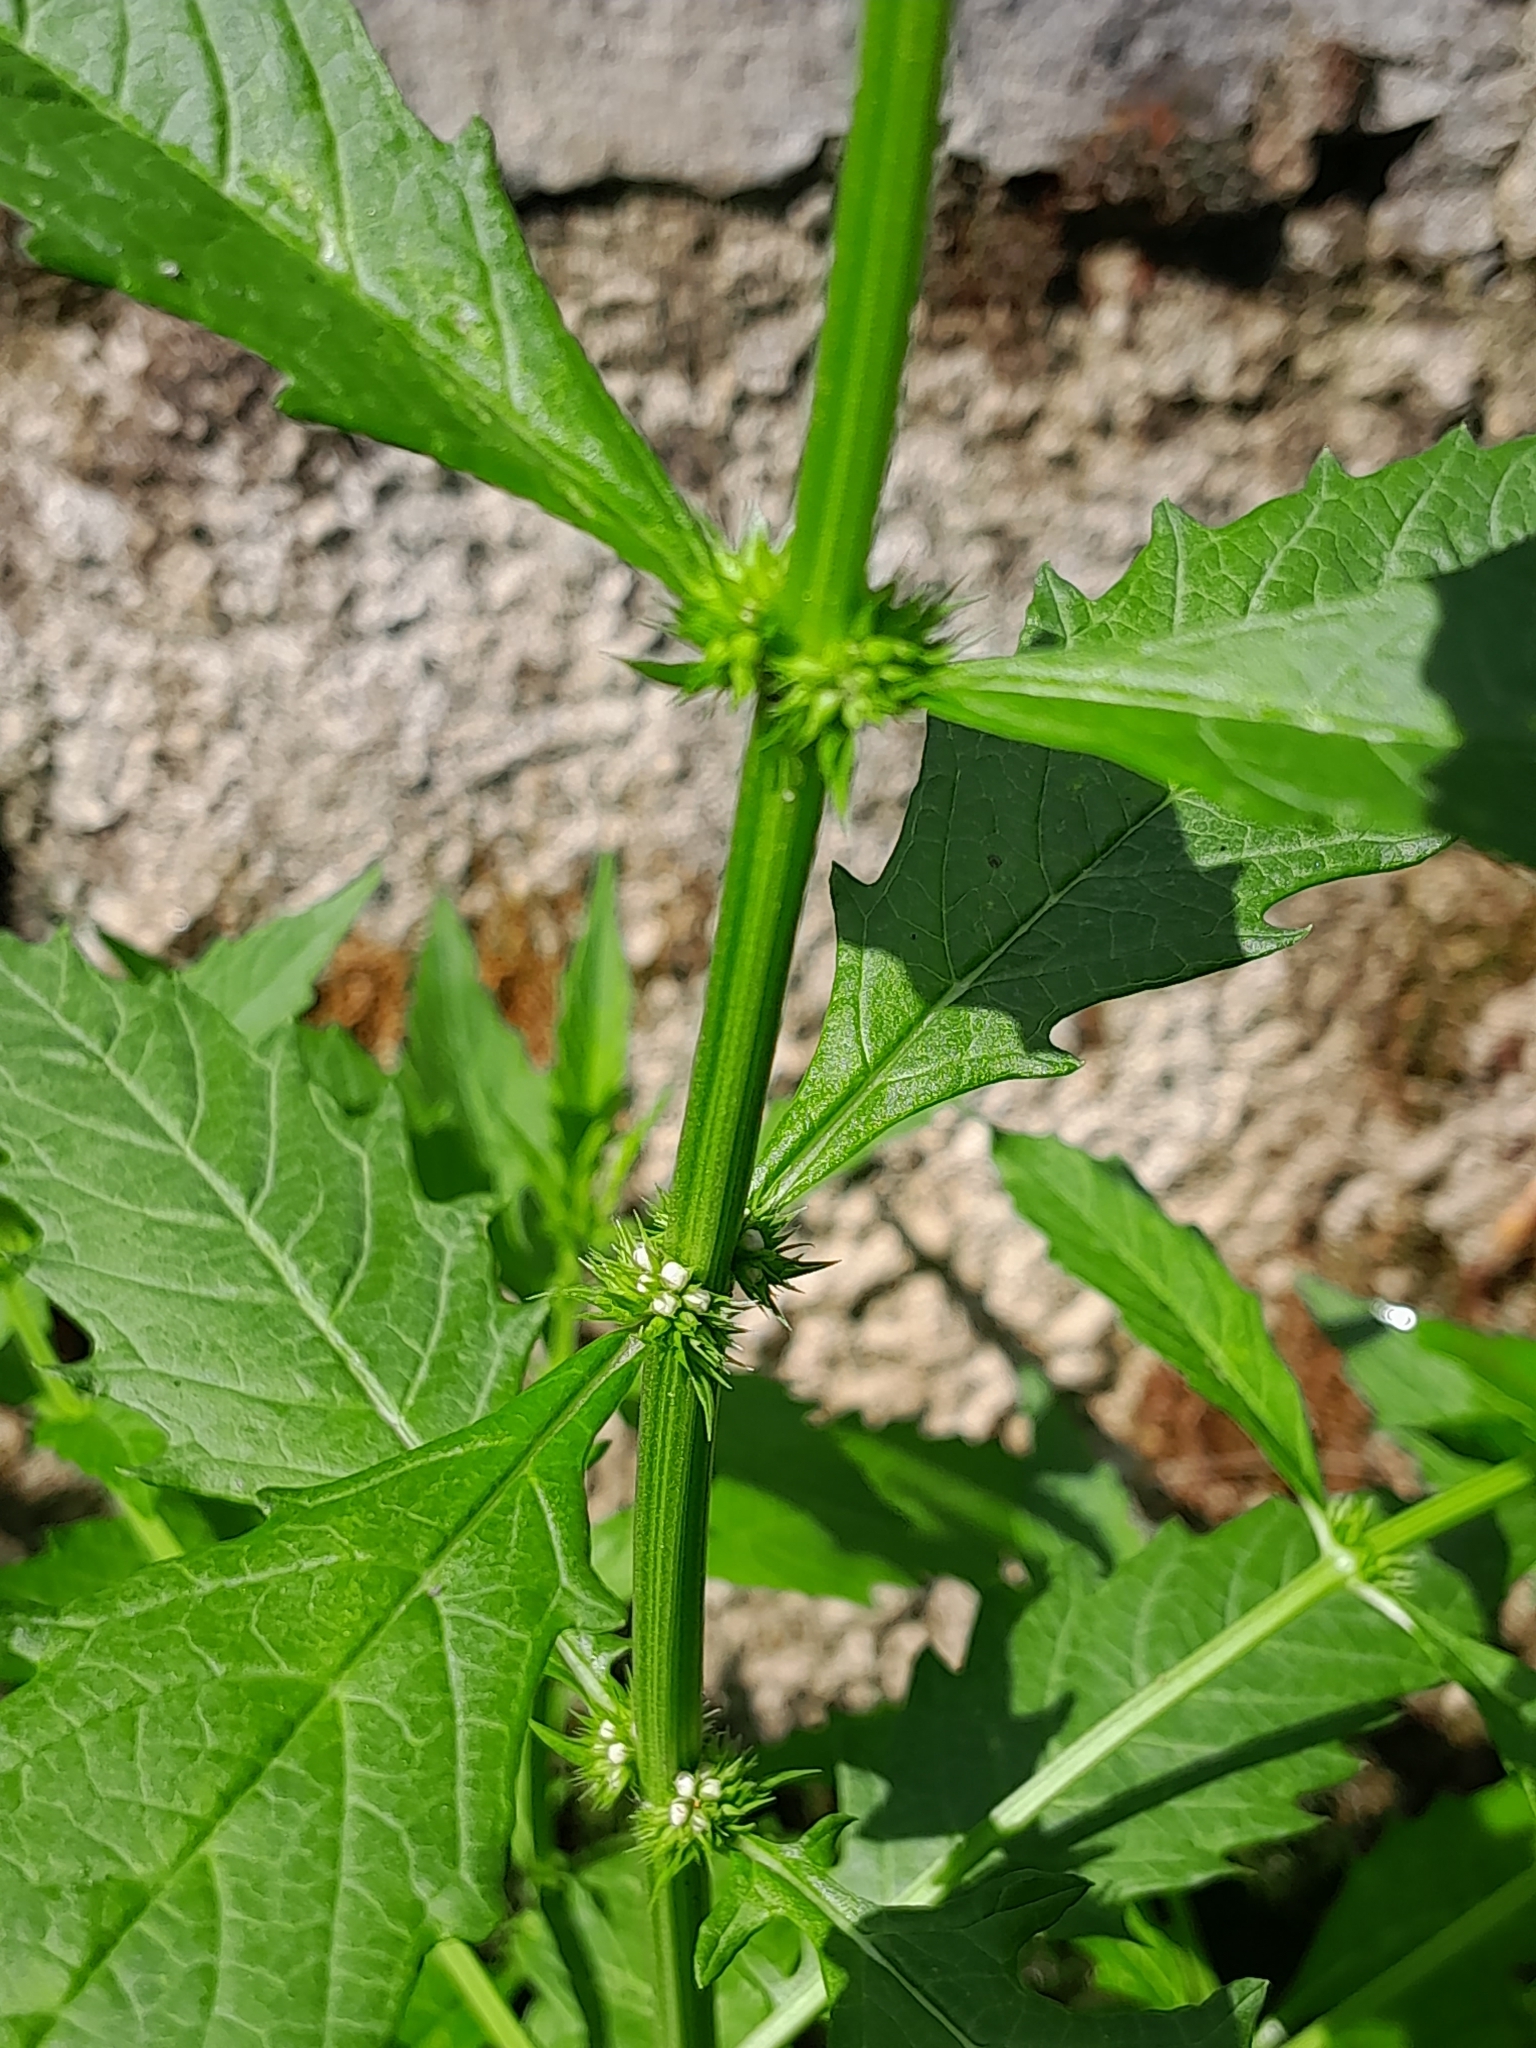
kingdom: Plantae
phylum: Tracheophyta
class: Magnoliopsida
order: Lamiales
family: Lamiaceae
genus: Lycopus
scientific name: Lycopus europaeus
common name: European bugleweed
